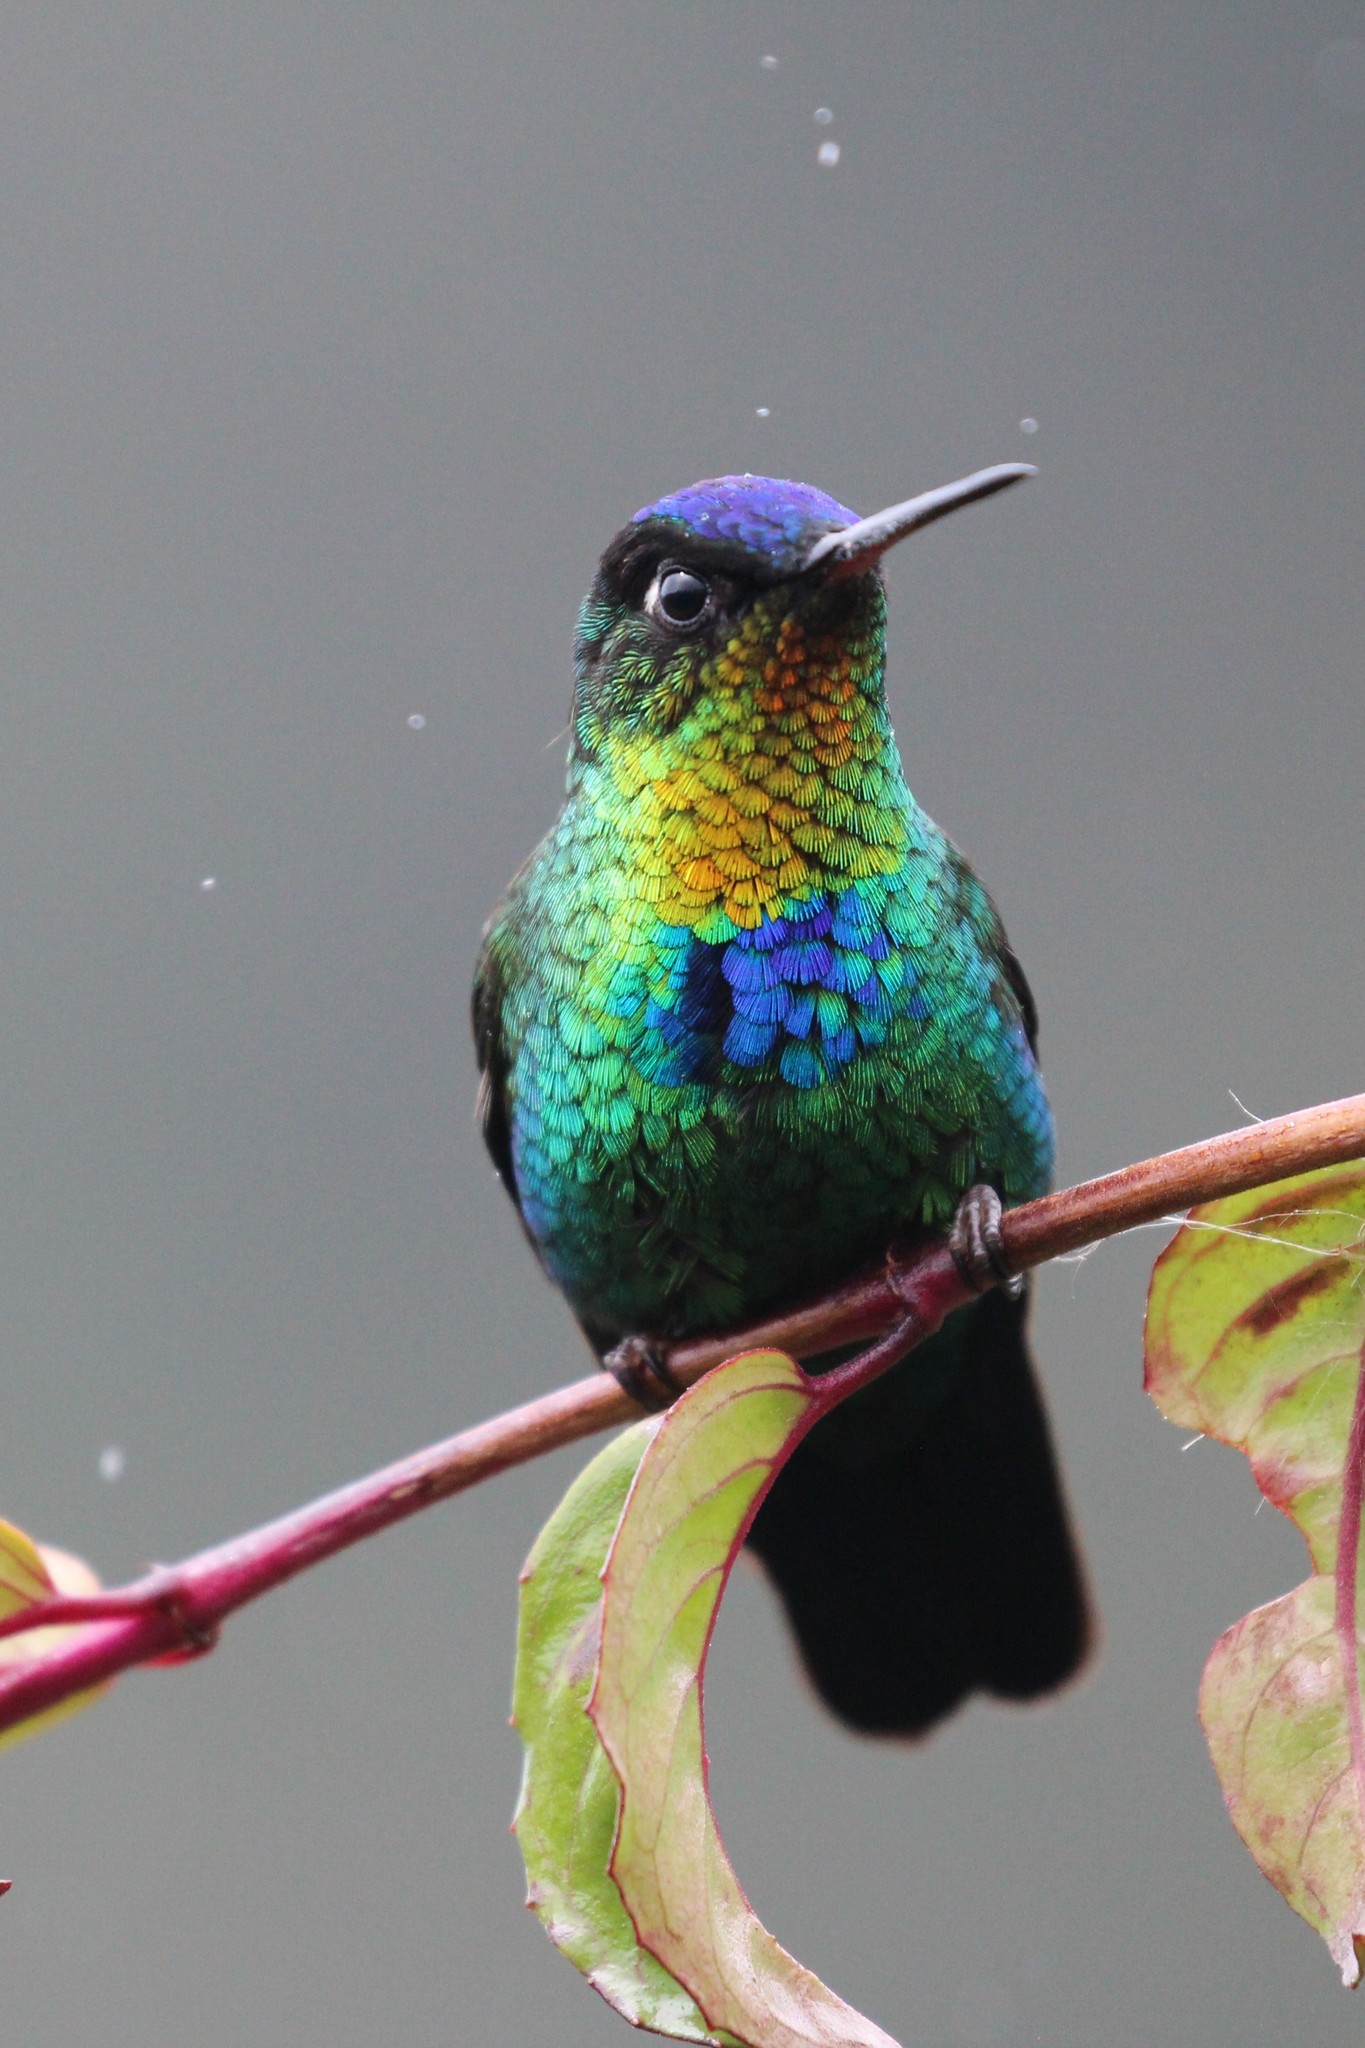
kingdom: Animalia
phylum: Chordata
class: Aves
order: Apodiformes
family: Trochilidae
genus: Panterpe
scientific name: Panterpe insignis
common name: Fiery-throated hummingbird
